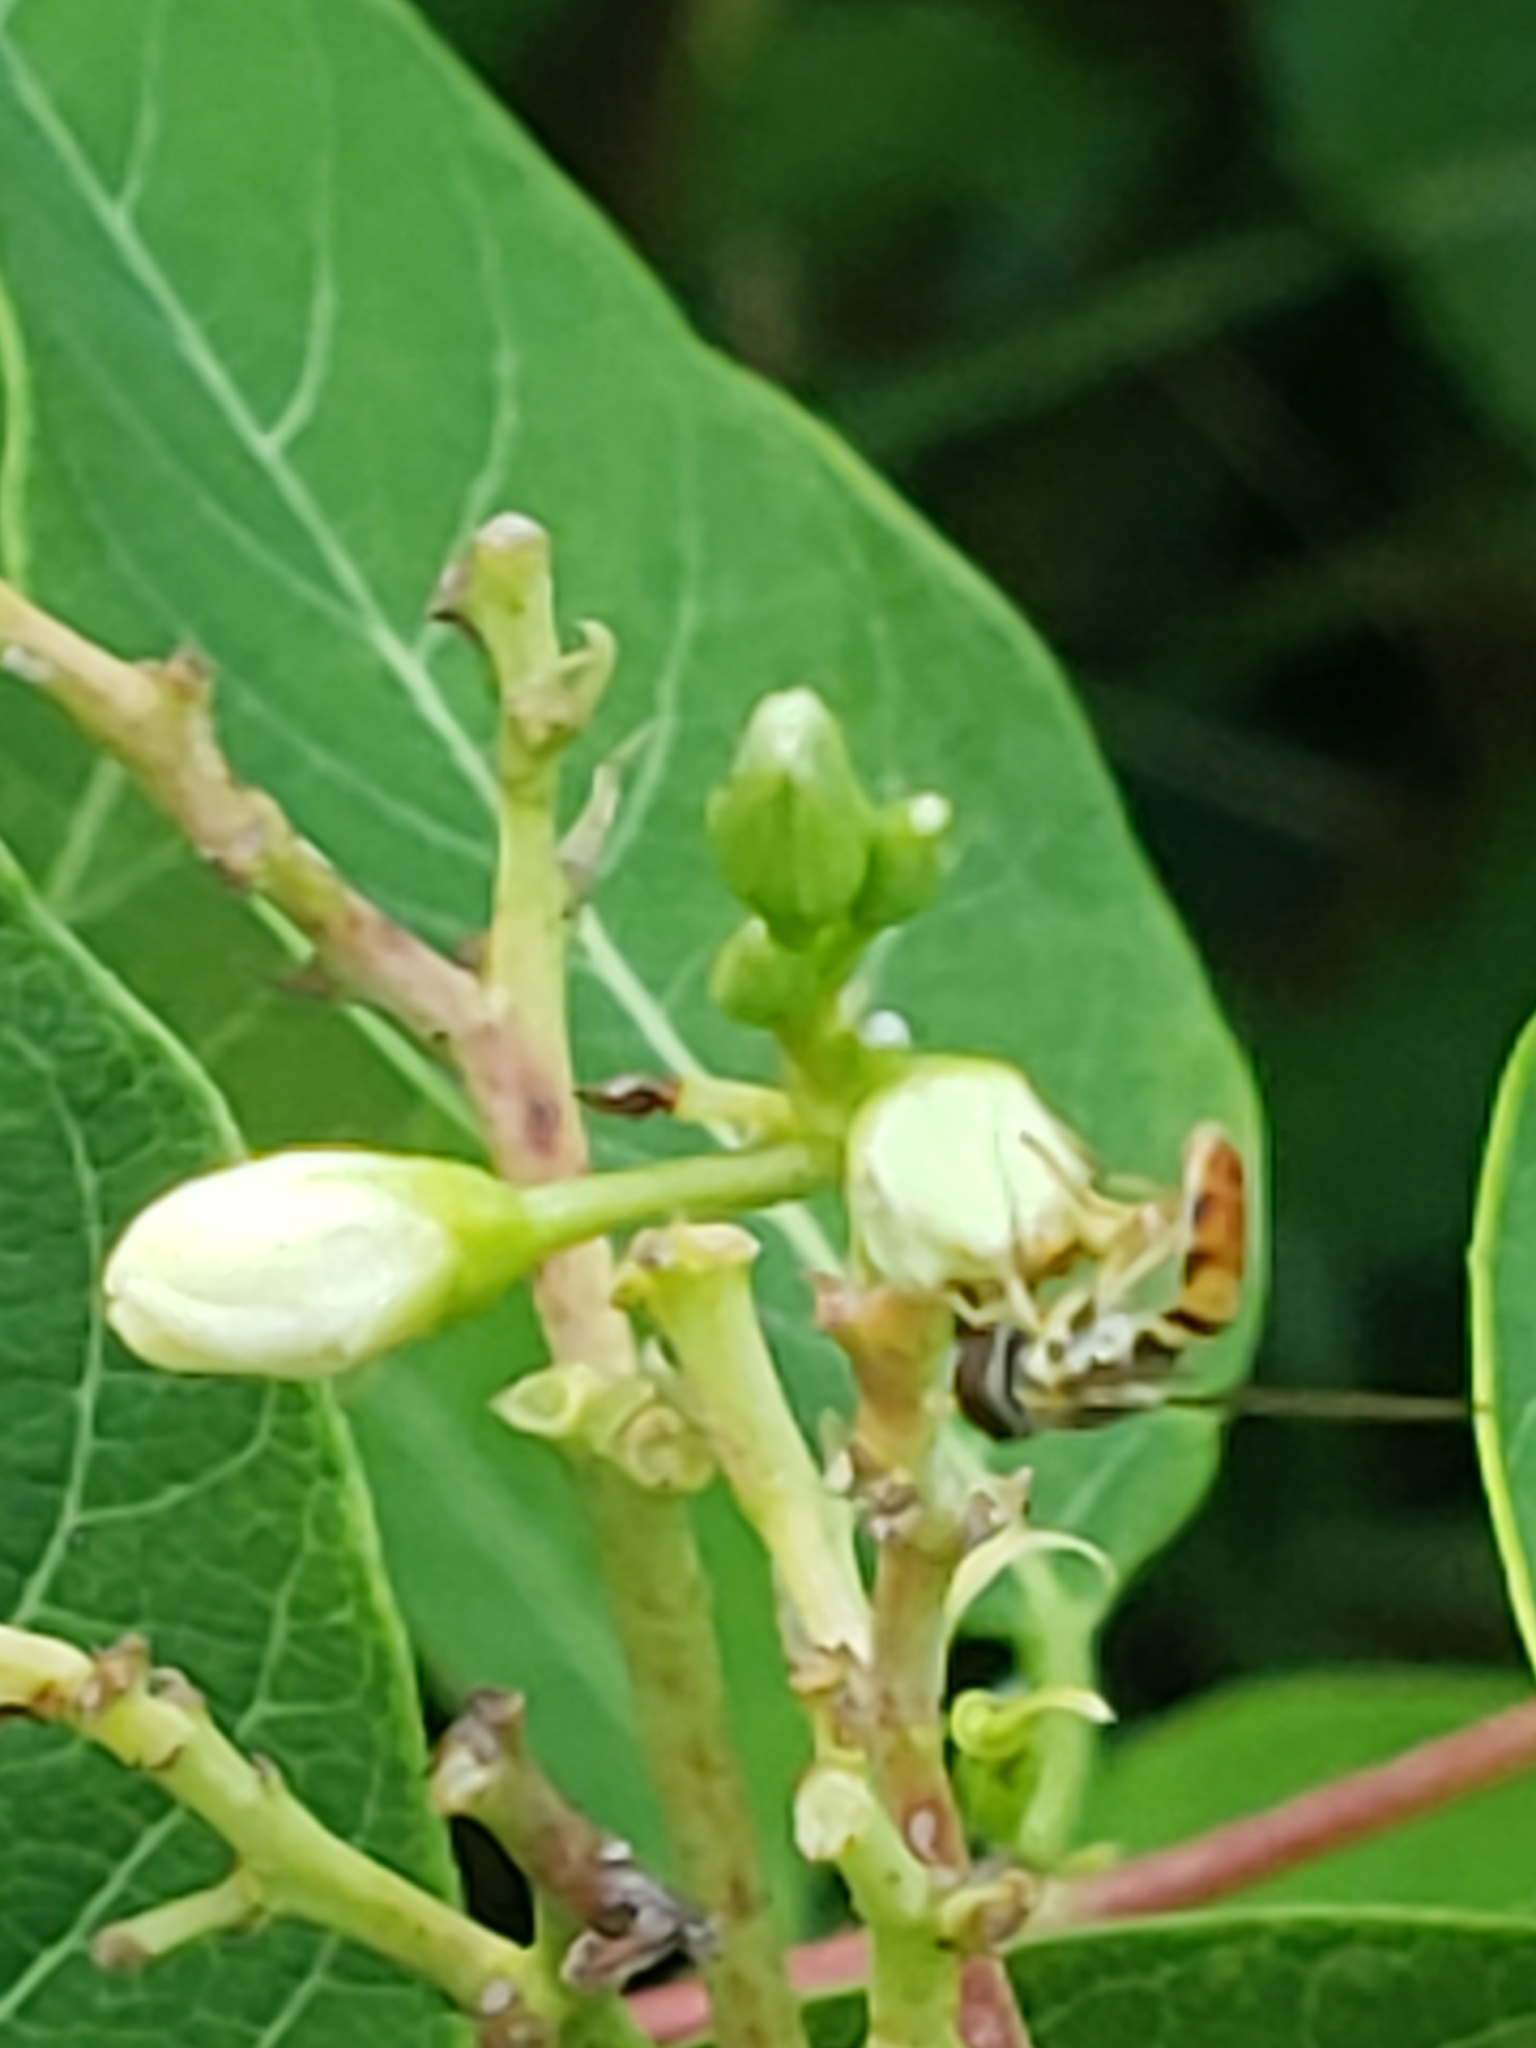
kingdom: Animalia
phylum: Arthropoda
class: Insecta
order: Diptera
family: Syrphidae
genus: Toxomerus
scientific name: Toxomerus marginatus
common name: Syrphid fly
